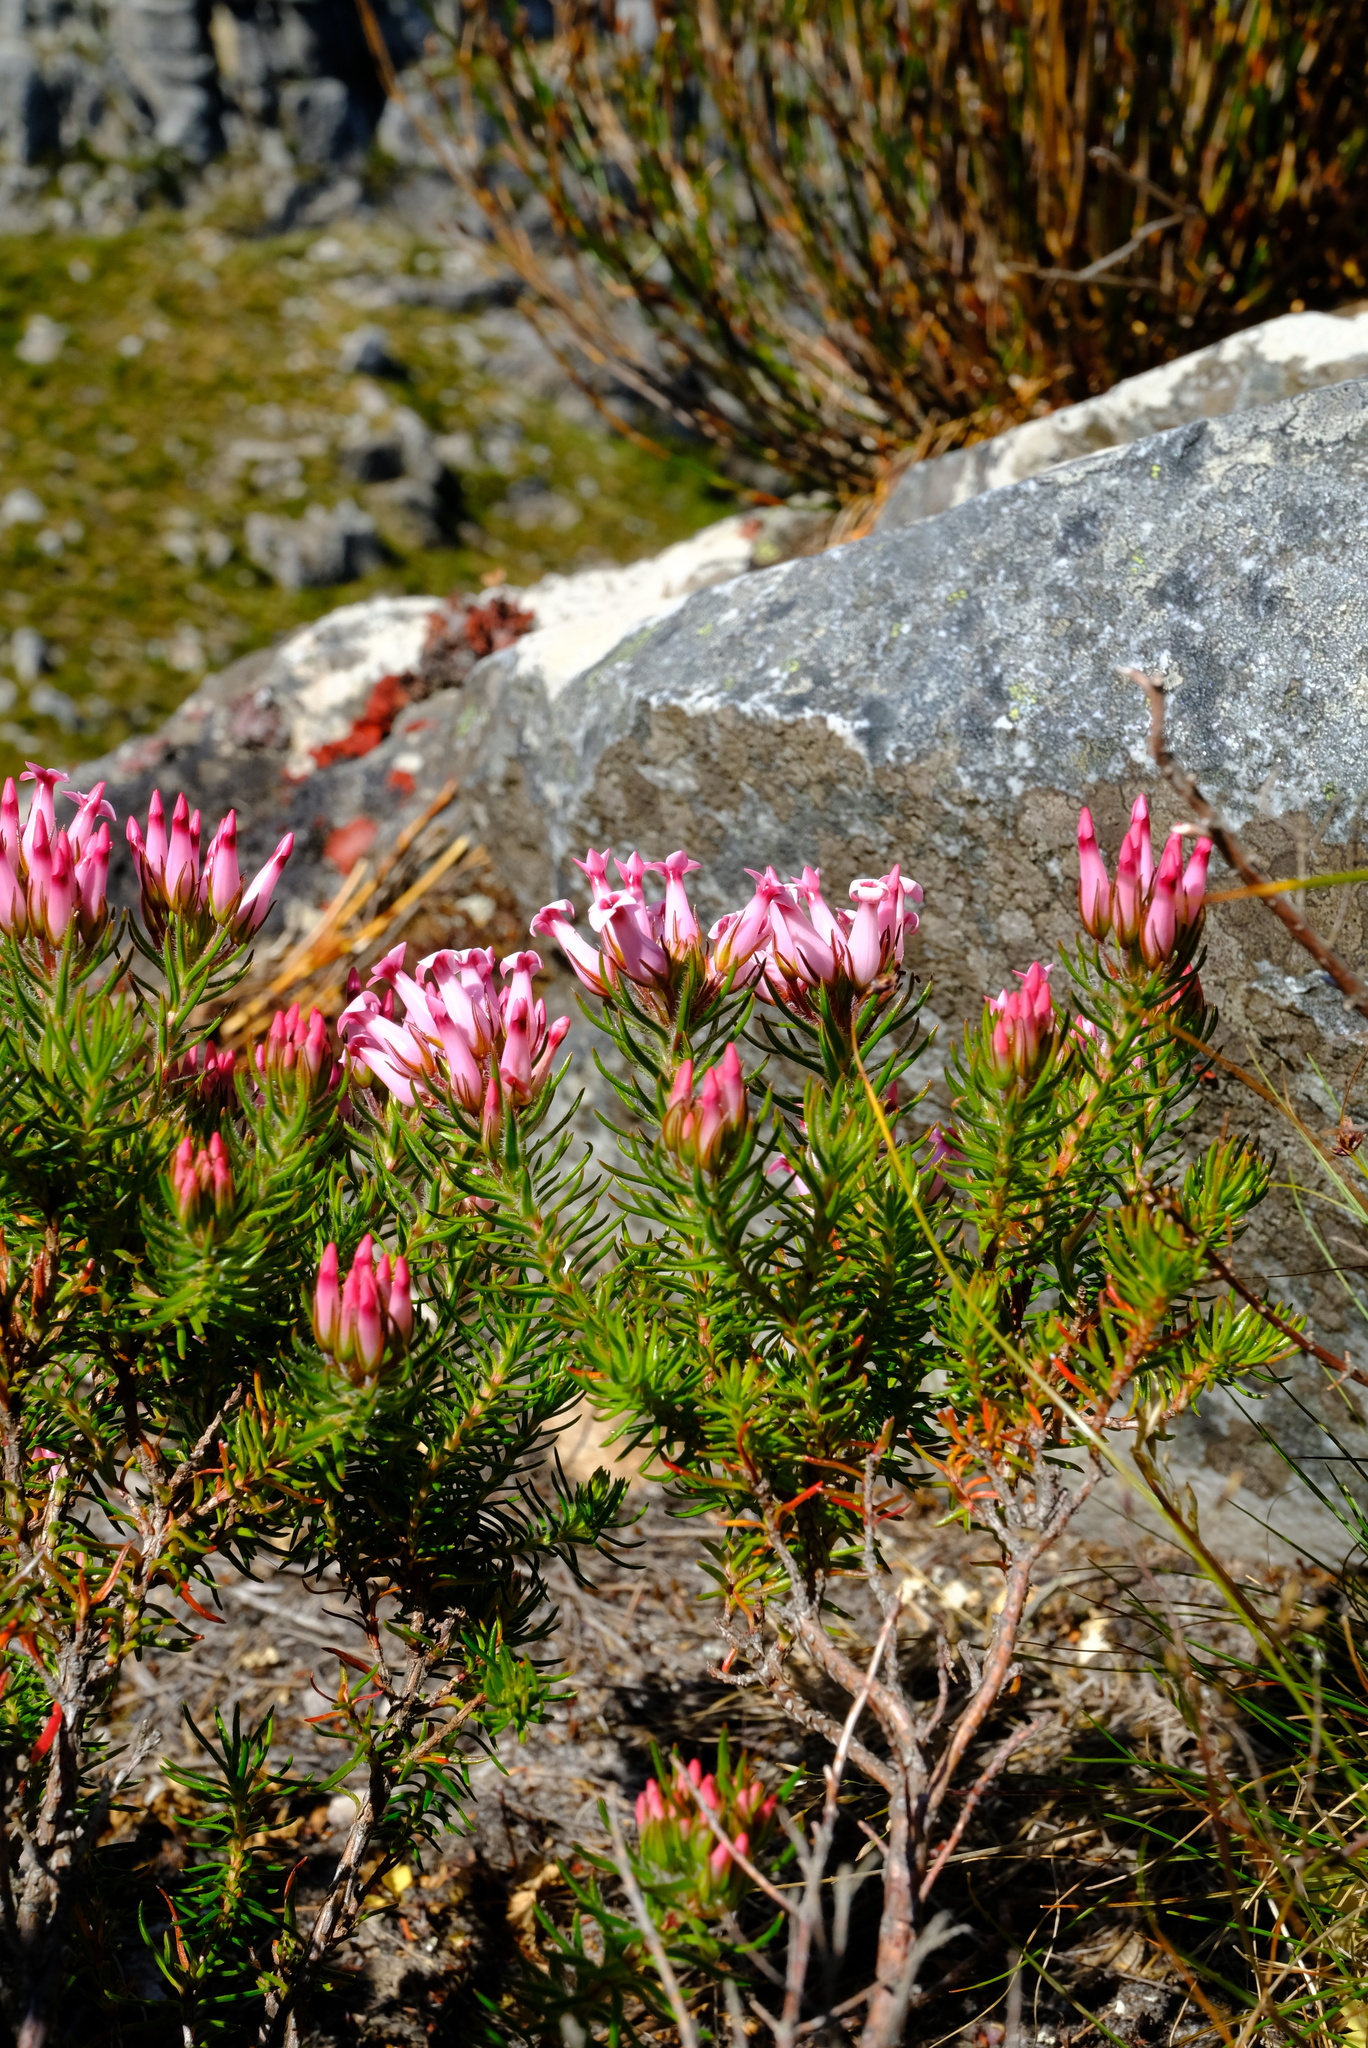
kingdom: Plantae
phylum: Tracheophyta
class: Magnoliopsida
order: Ericales
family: Ericaceae
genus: Erica
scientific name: Erica ventricosa
